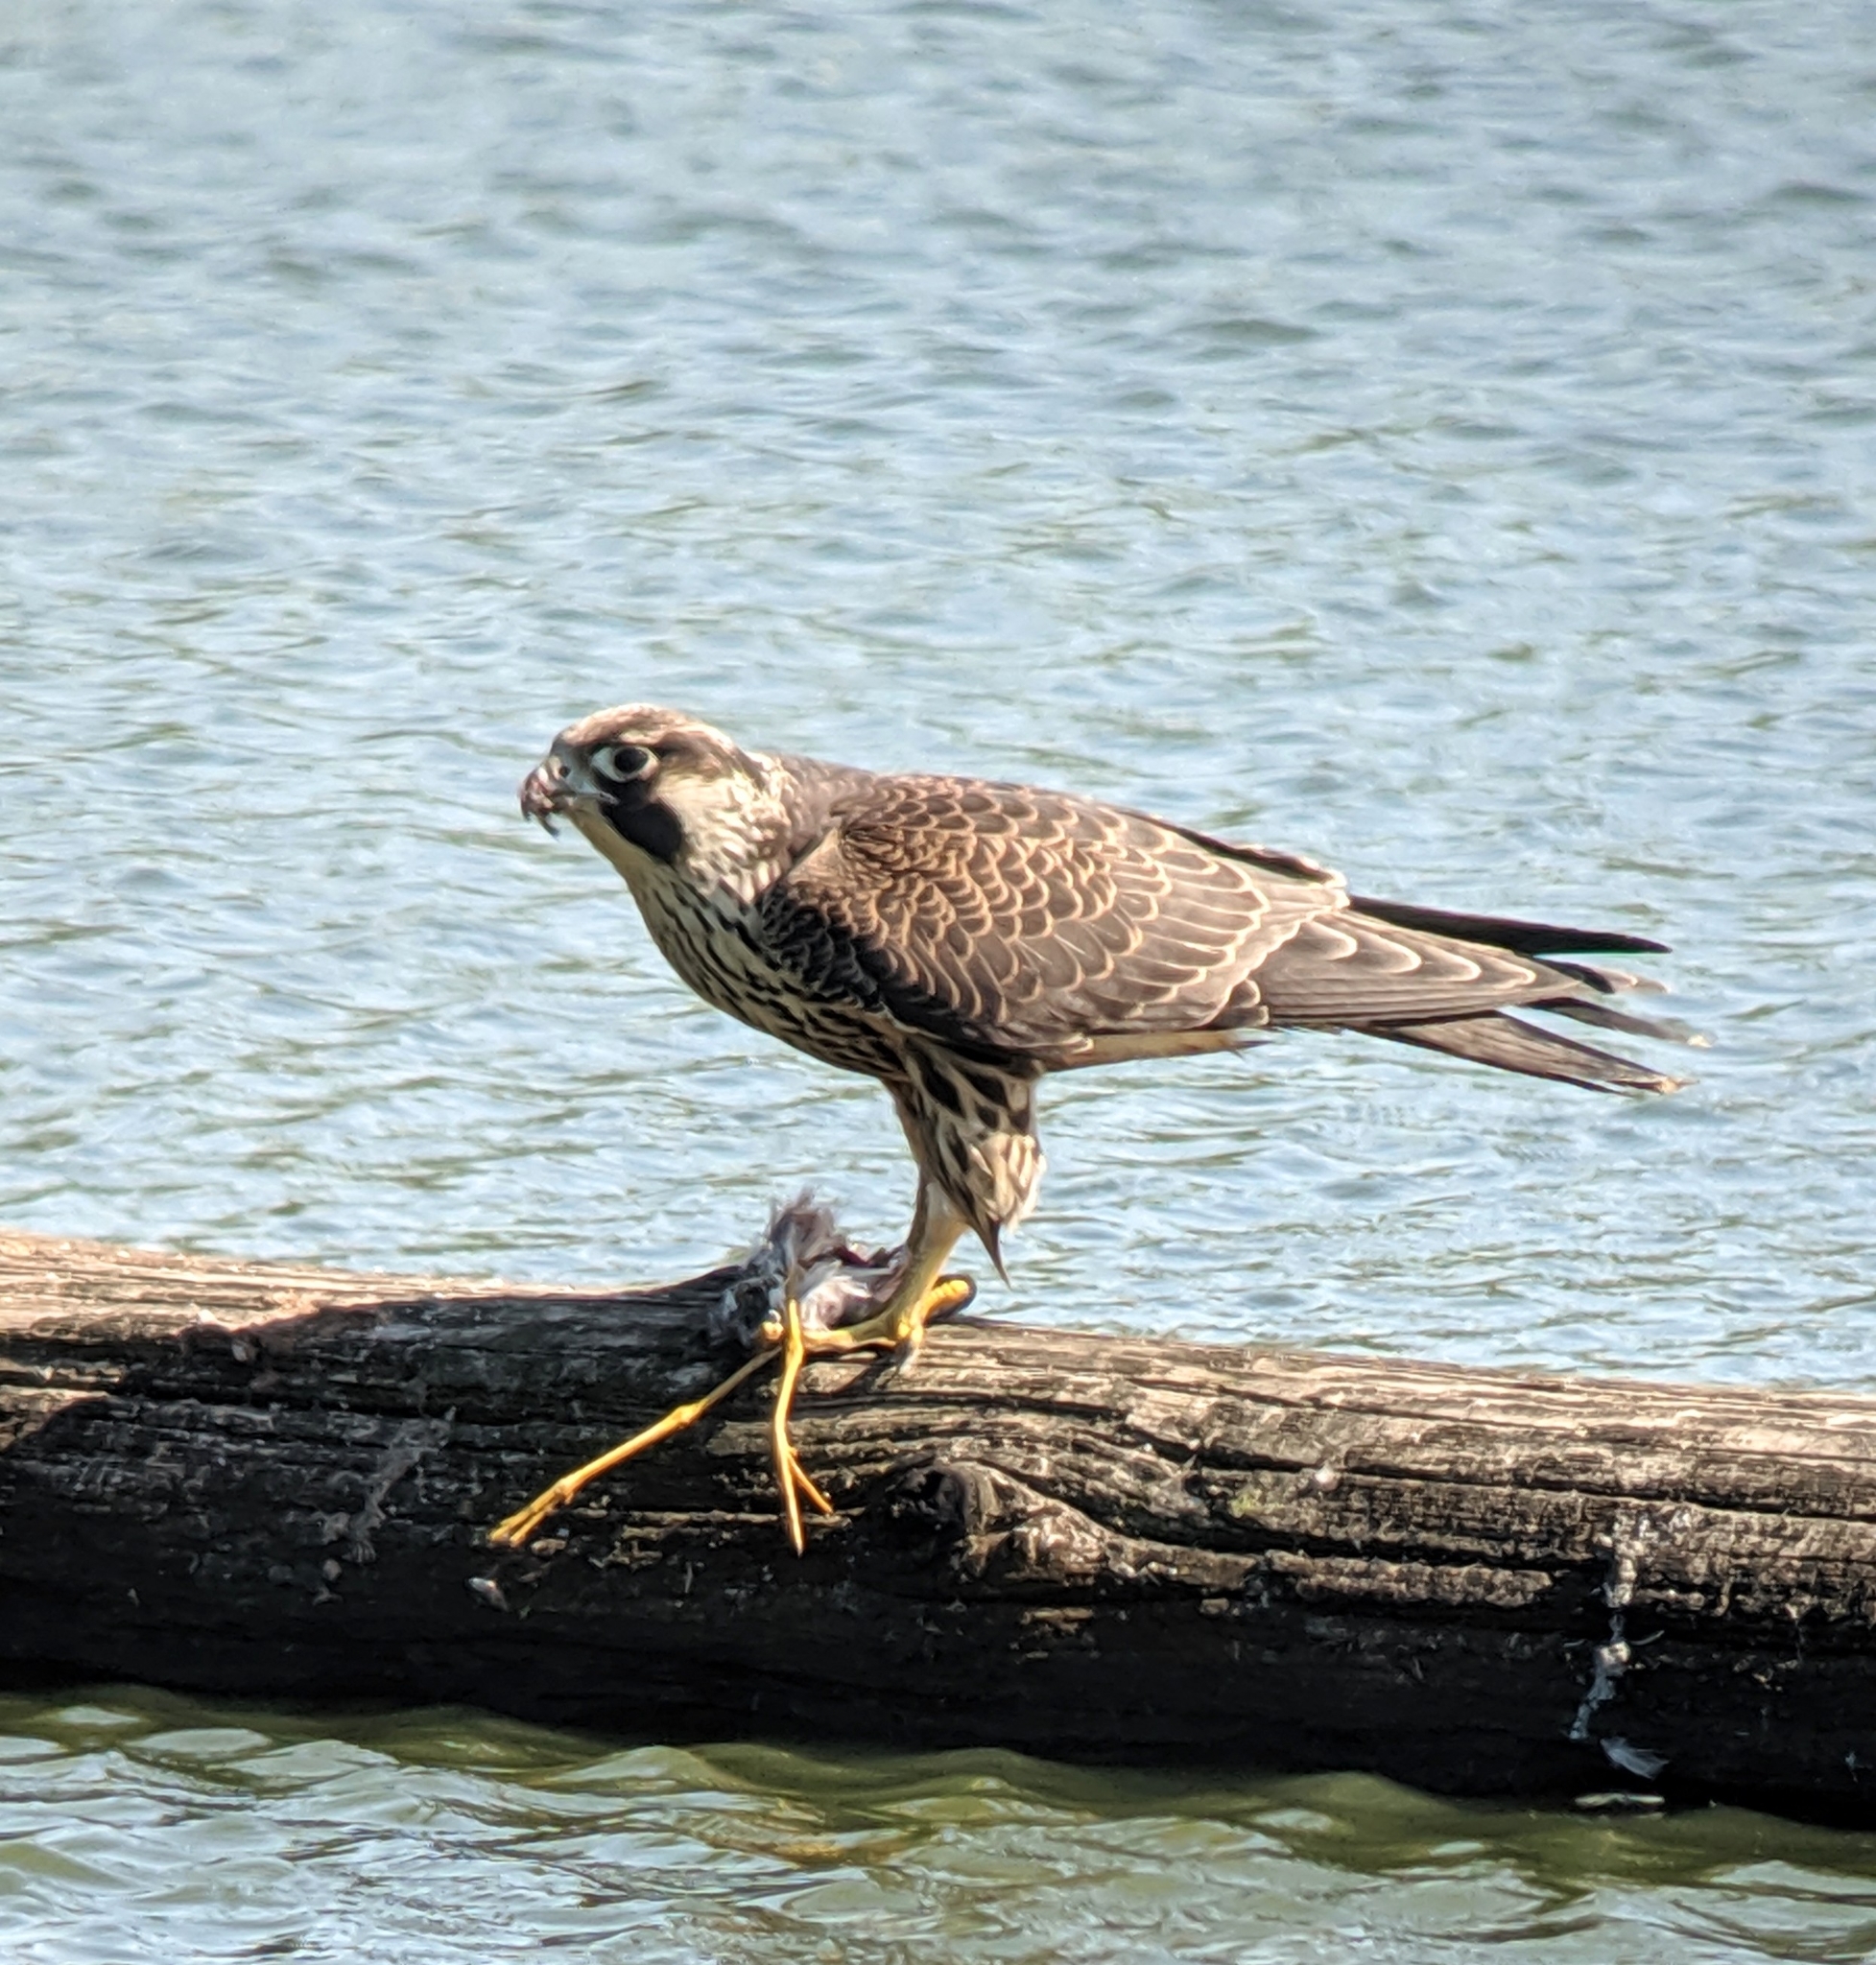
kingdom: Animalia
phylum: Chordata
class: Aves
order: Falconiformes
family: Falconidae
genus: Falco
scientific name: Falco peregrinus
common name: Peregrine falcon
